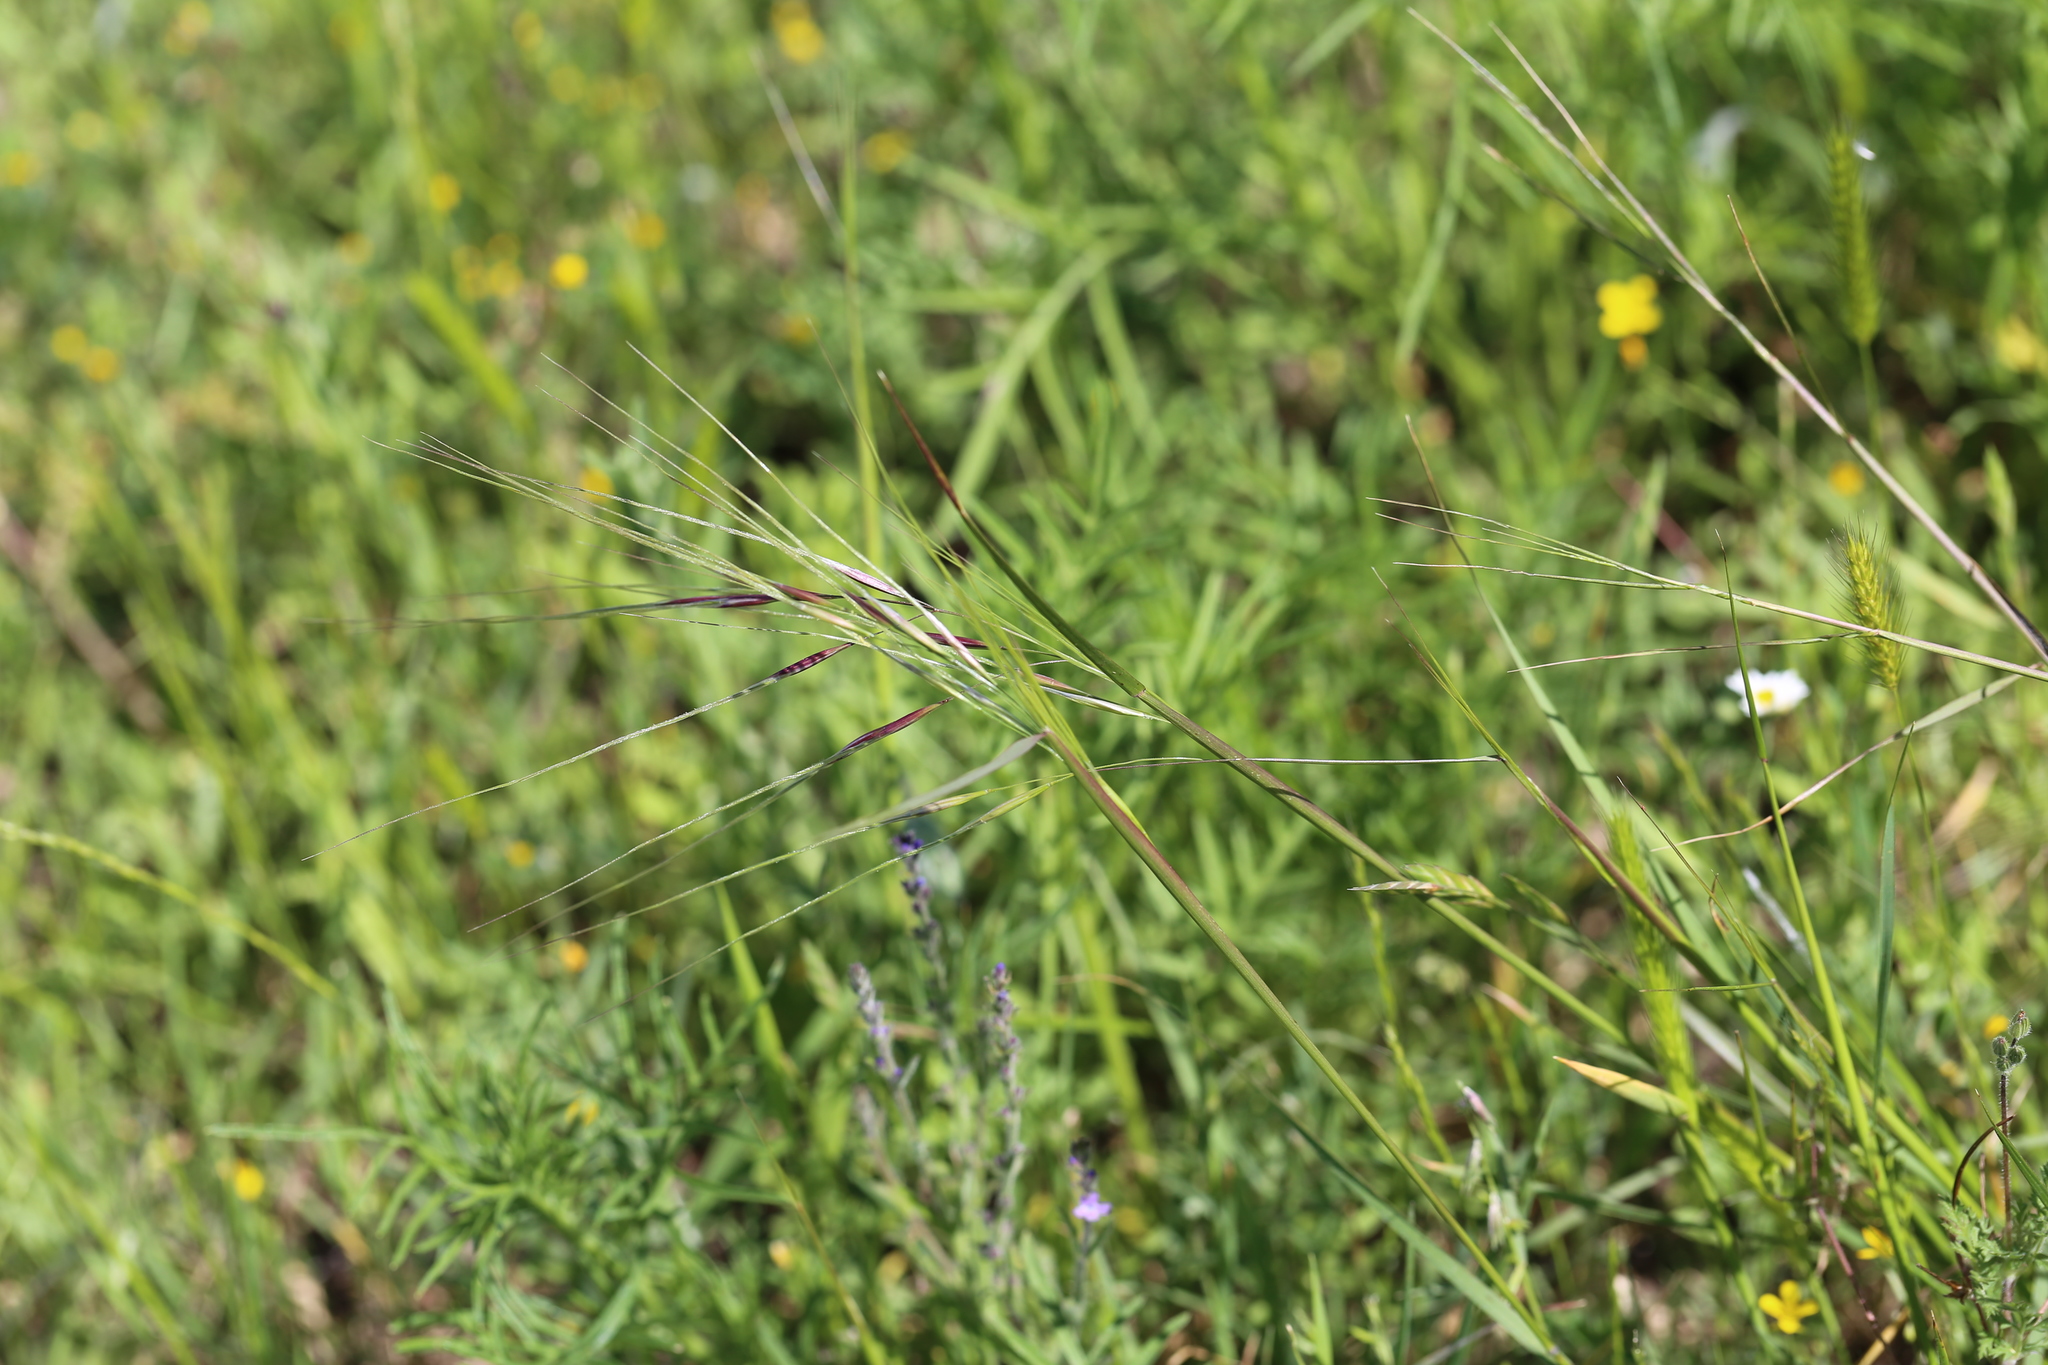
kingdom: Plantae
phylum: Tracheophyta
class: Liliopsida
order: Poales
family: Poaceae
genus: Nassella
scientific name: Nassella leucotricha
